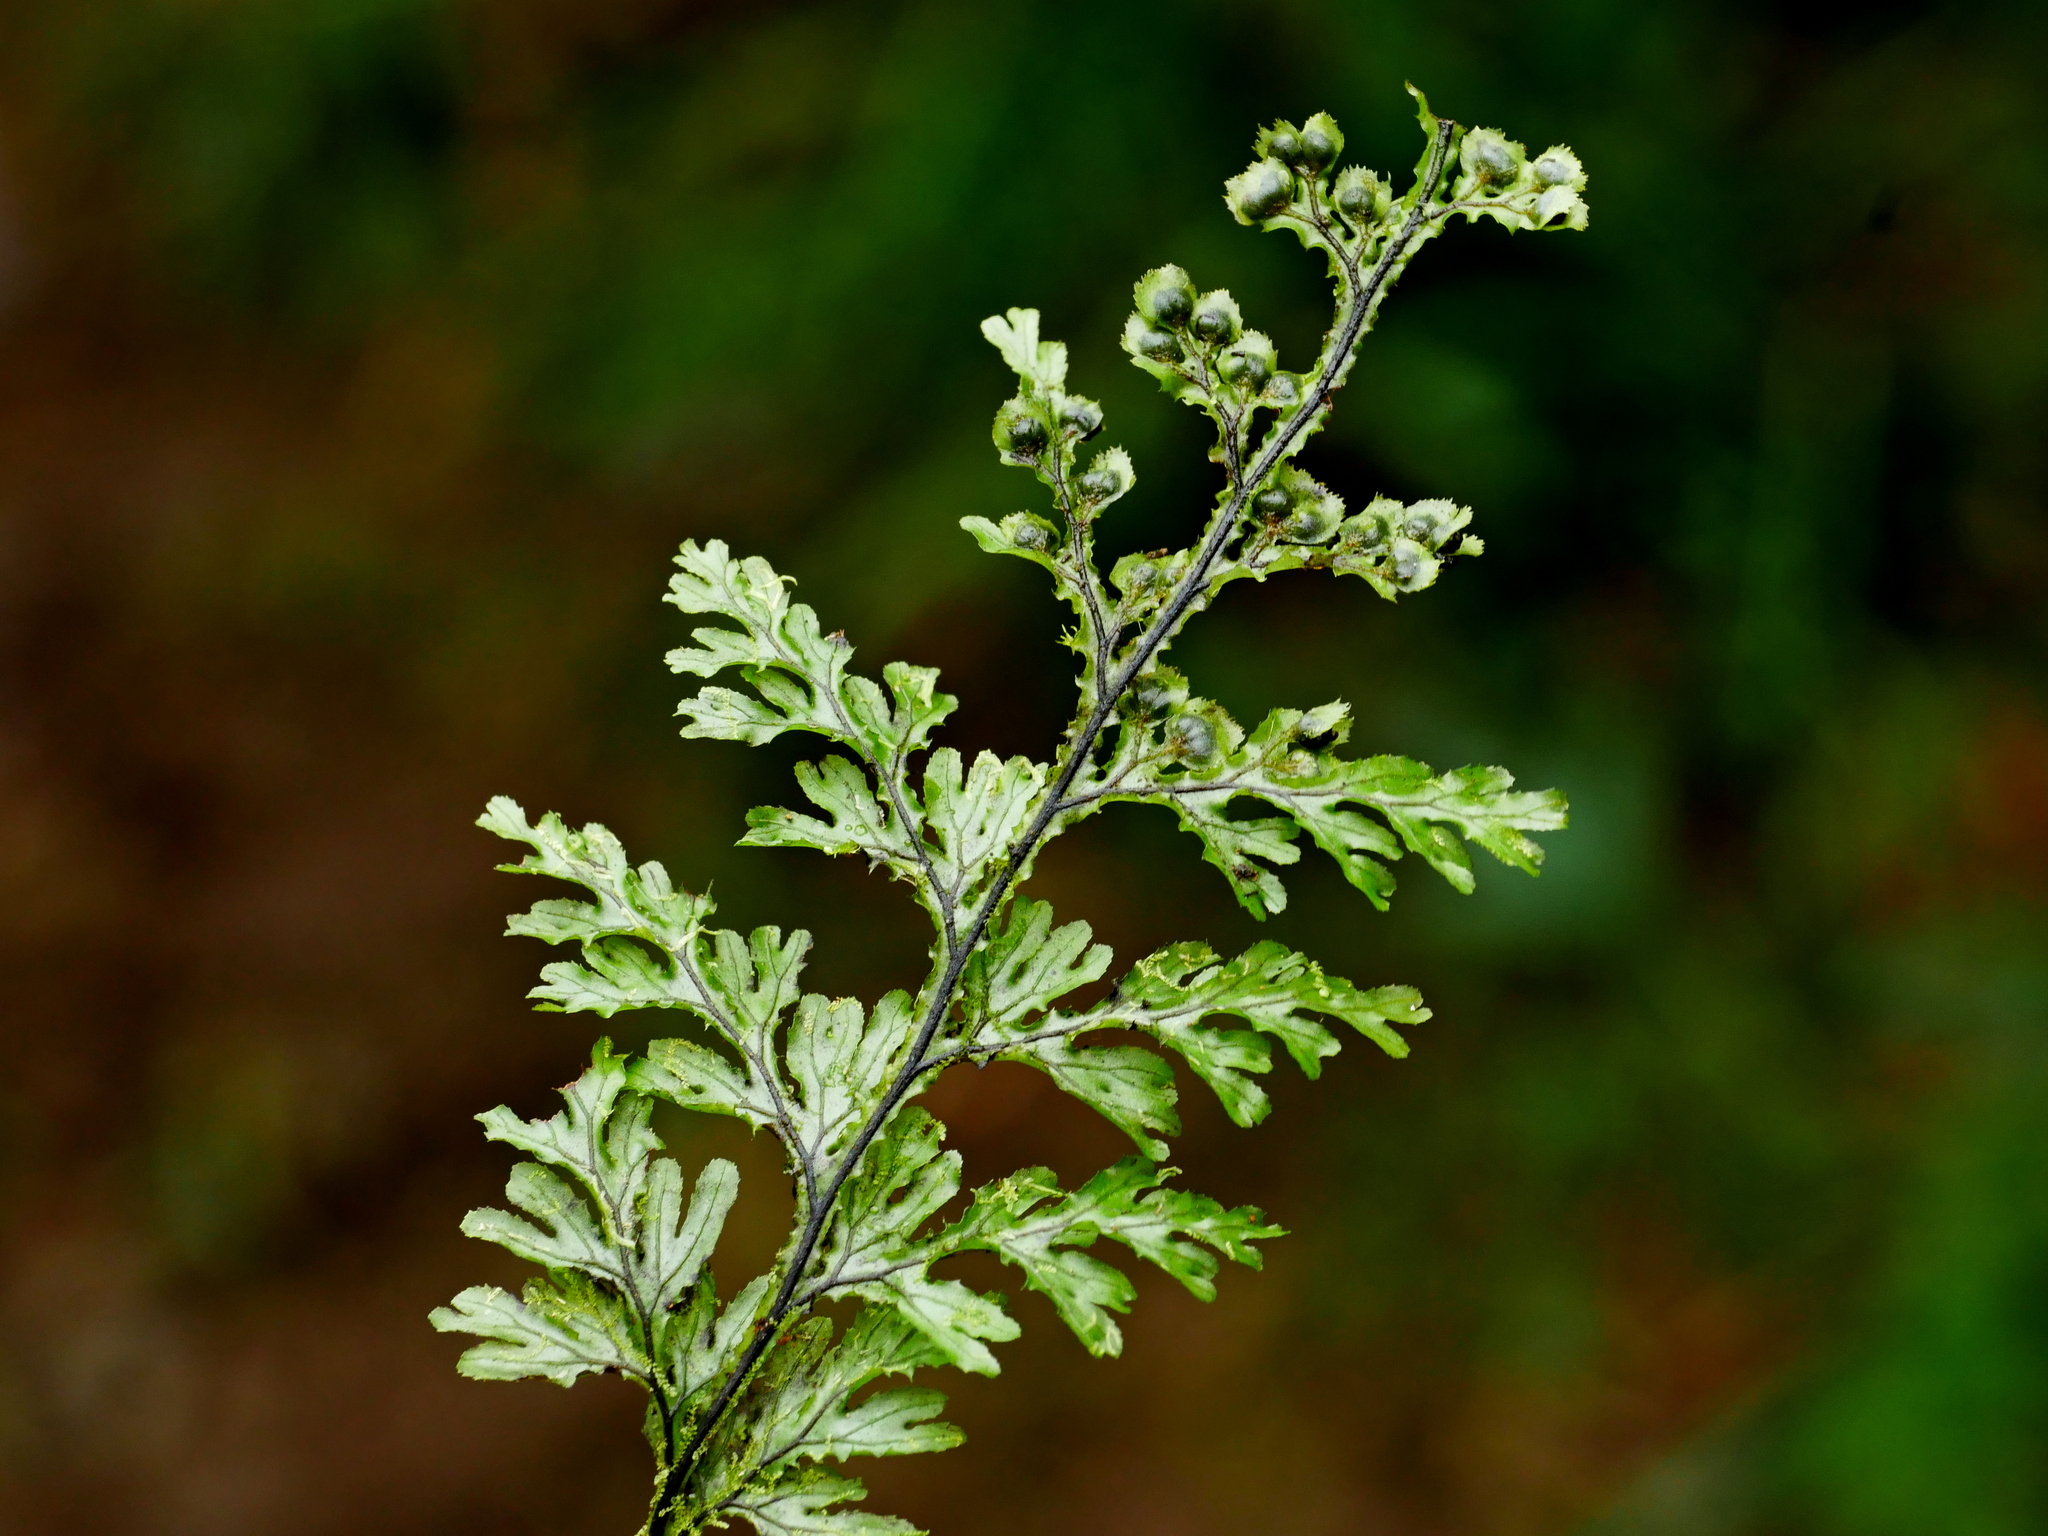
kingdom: Plantae
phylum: Tracheophyta
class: Polypodiopsida
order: Hymenophyllales
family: Hymenophyllaceae
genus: Hymenophyllum
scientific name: Hymenophyllum okadae
